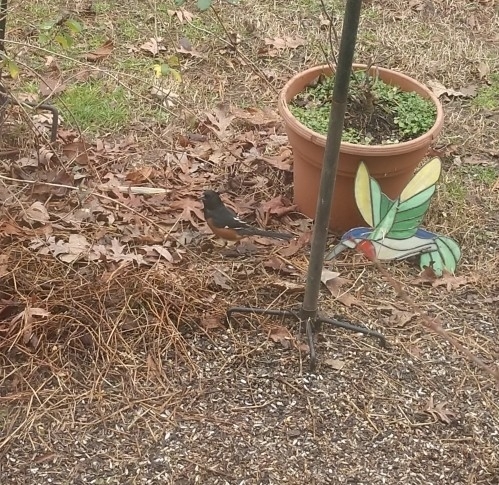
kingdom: Animalia
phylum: Chordata
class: Aves
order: Passeriformes
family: Passerellidae
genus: Pipilo
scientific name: Pipilo erythrophthalmus
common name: Eastern towhee
